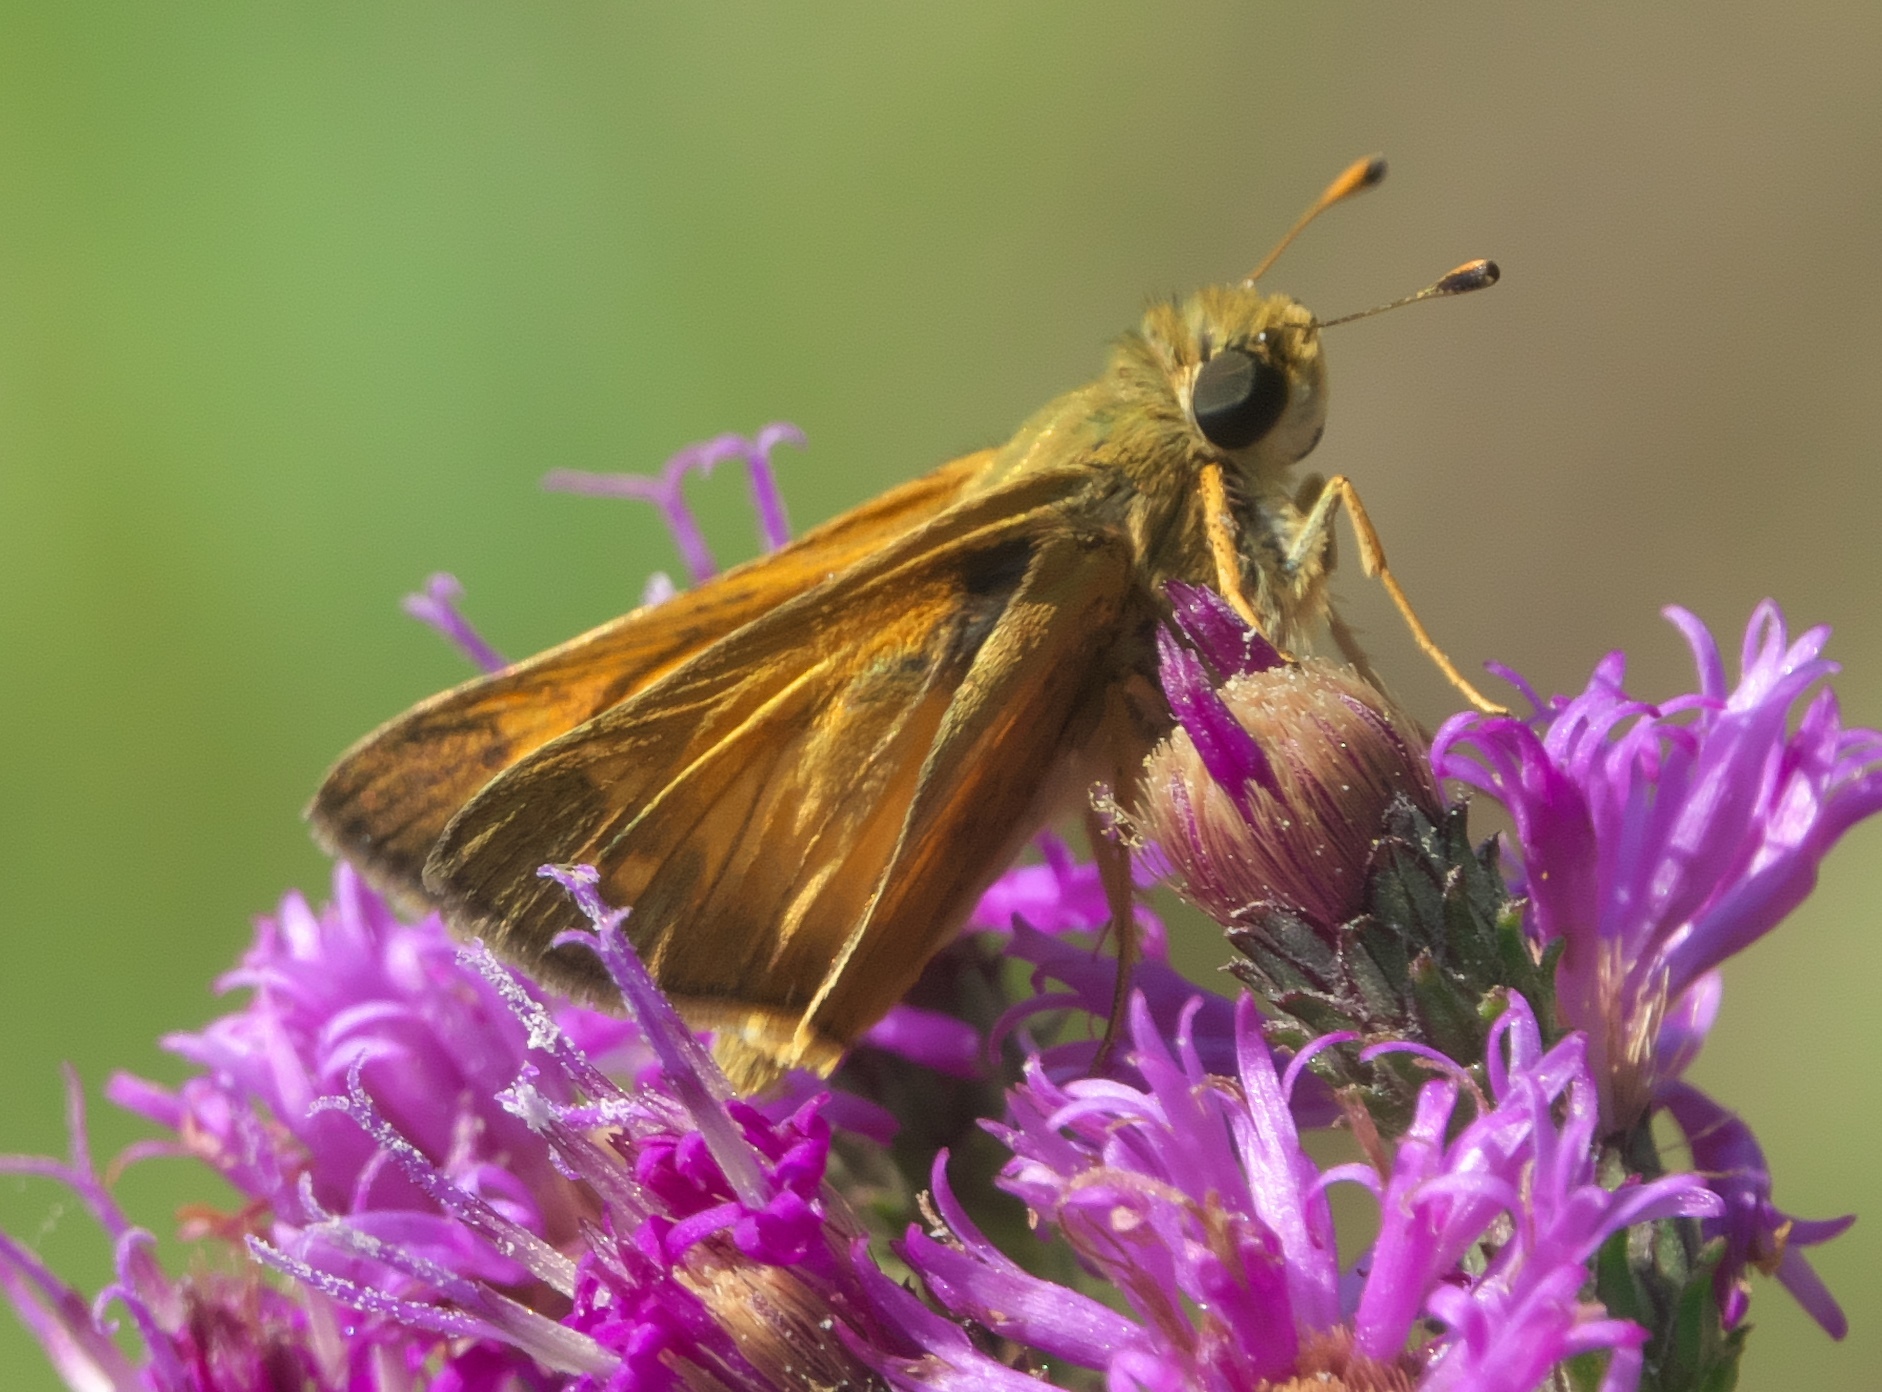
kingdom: Animalia
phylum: Arthropoda
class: Insecta
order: Lepidoptera
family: Hesperiidae
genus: Atalopedes
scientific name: Atalopedes
